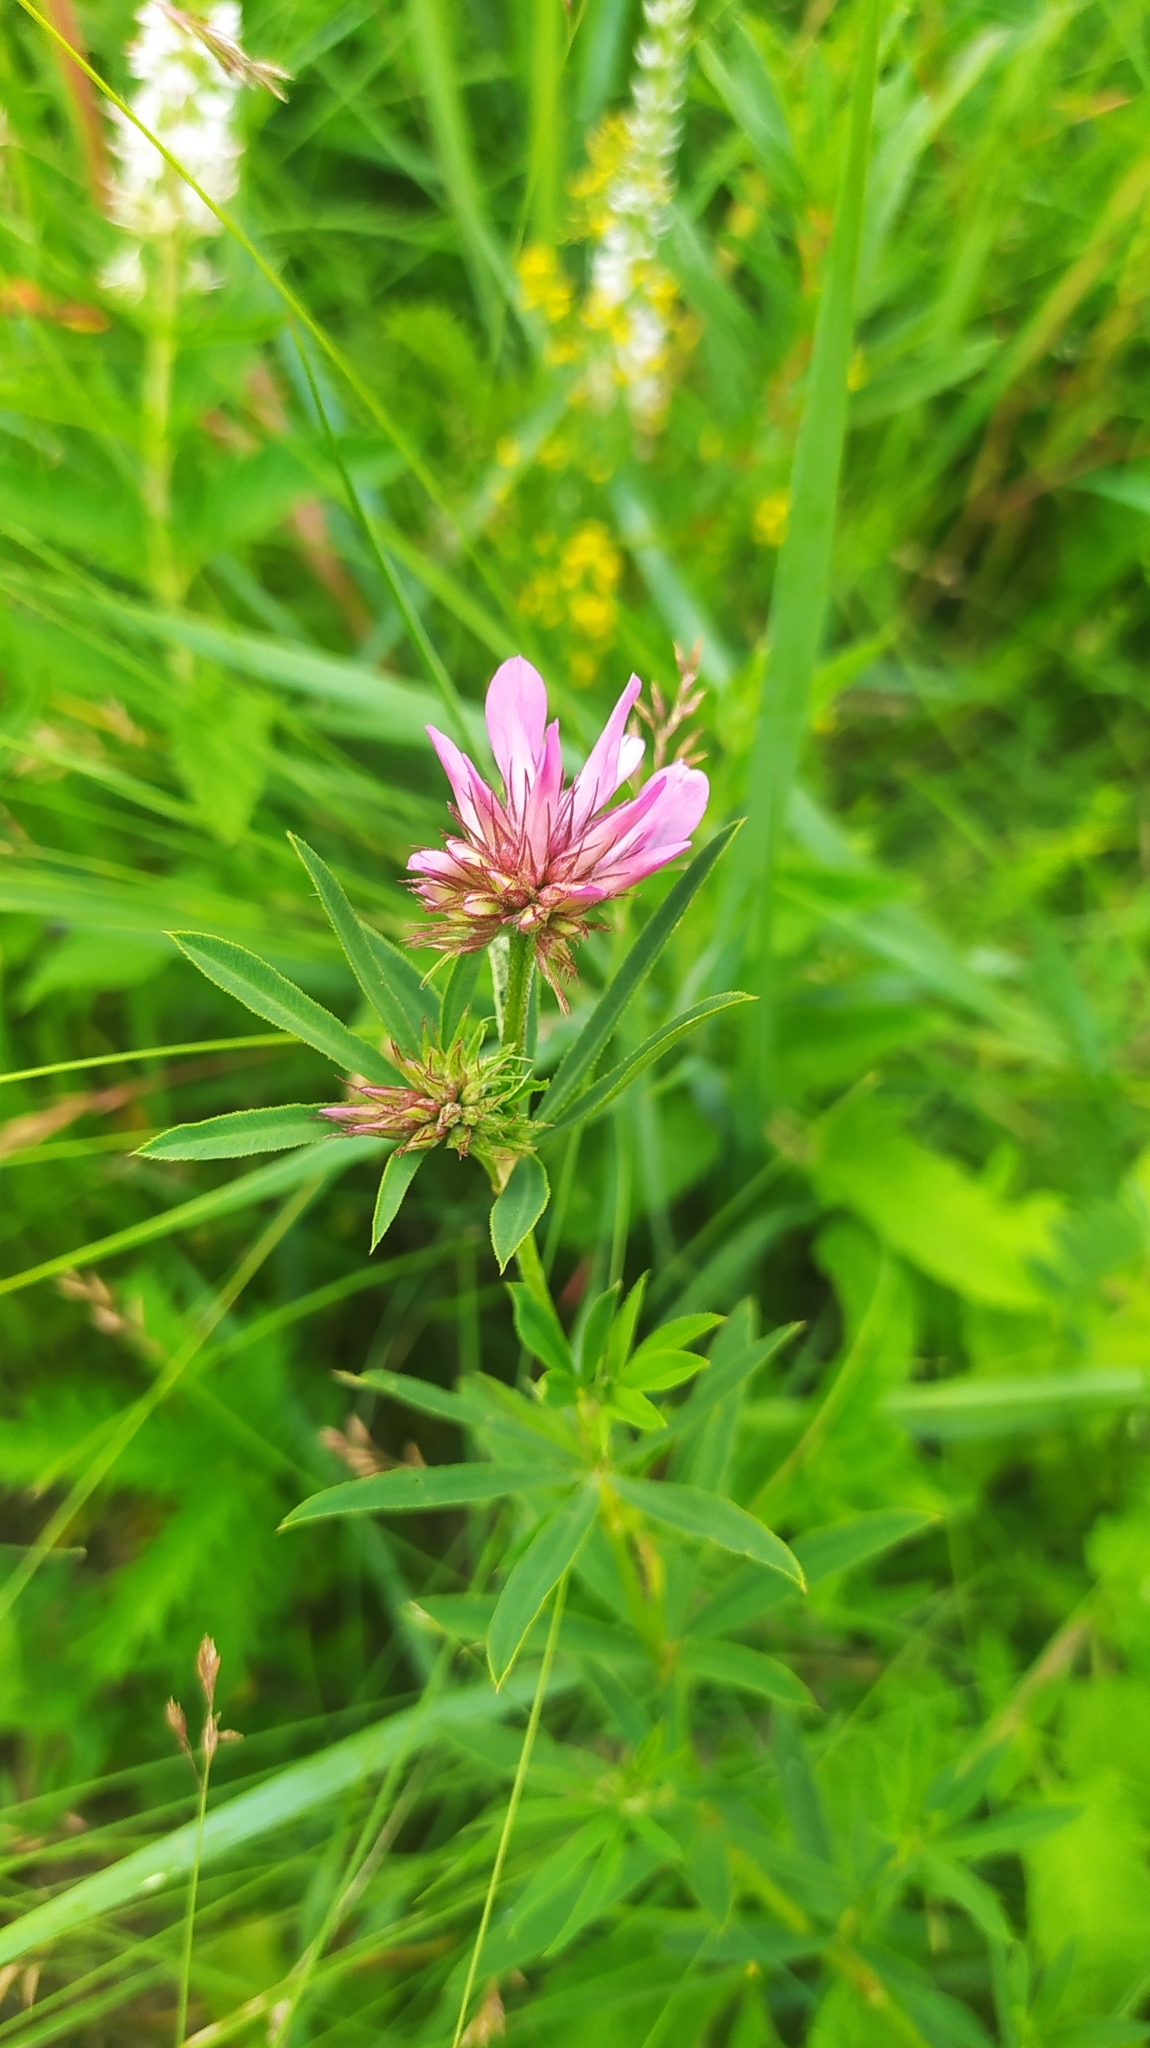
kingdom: Plantae
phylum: Tracheophyta
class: Magnoliopsida
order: Fabales
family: Fabaceae
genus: Trifolium
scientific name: Trifolium lupinaster
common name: Lupine clover
